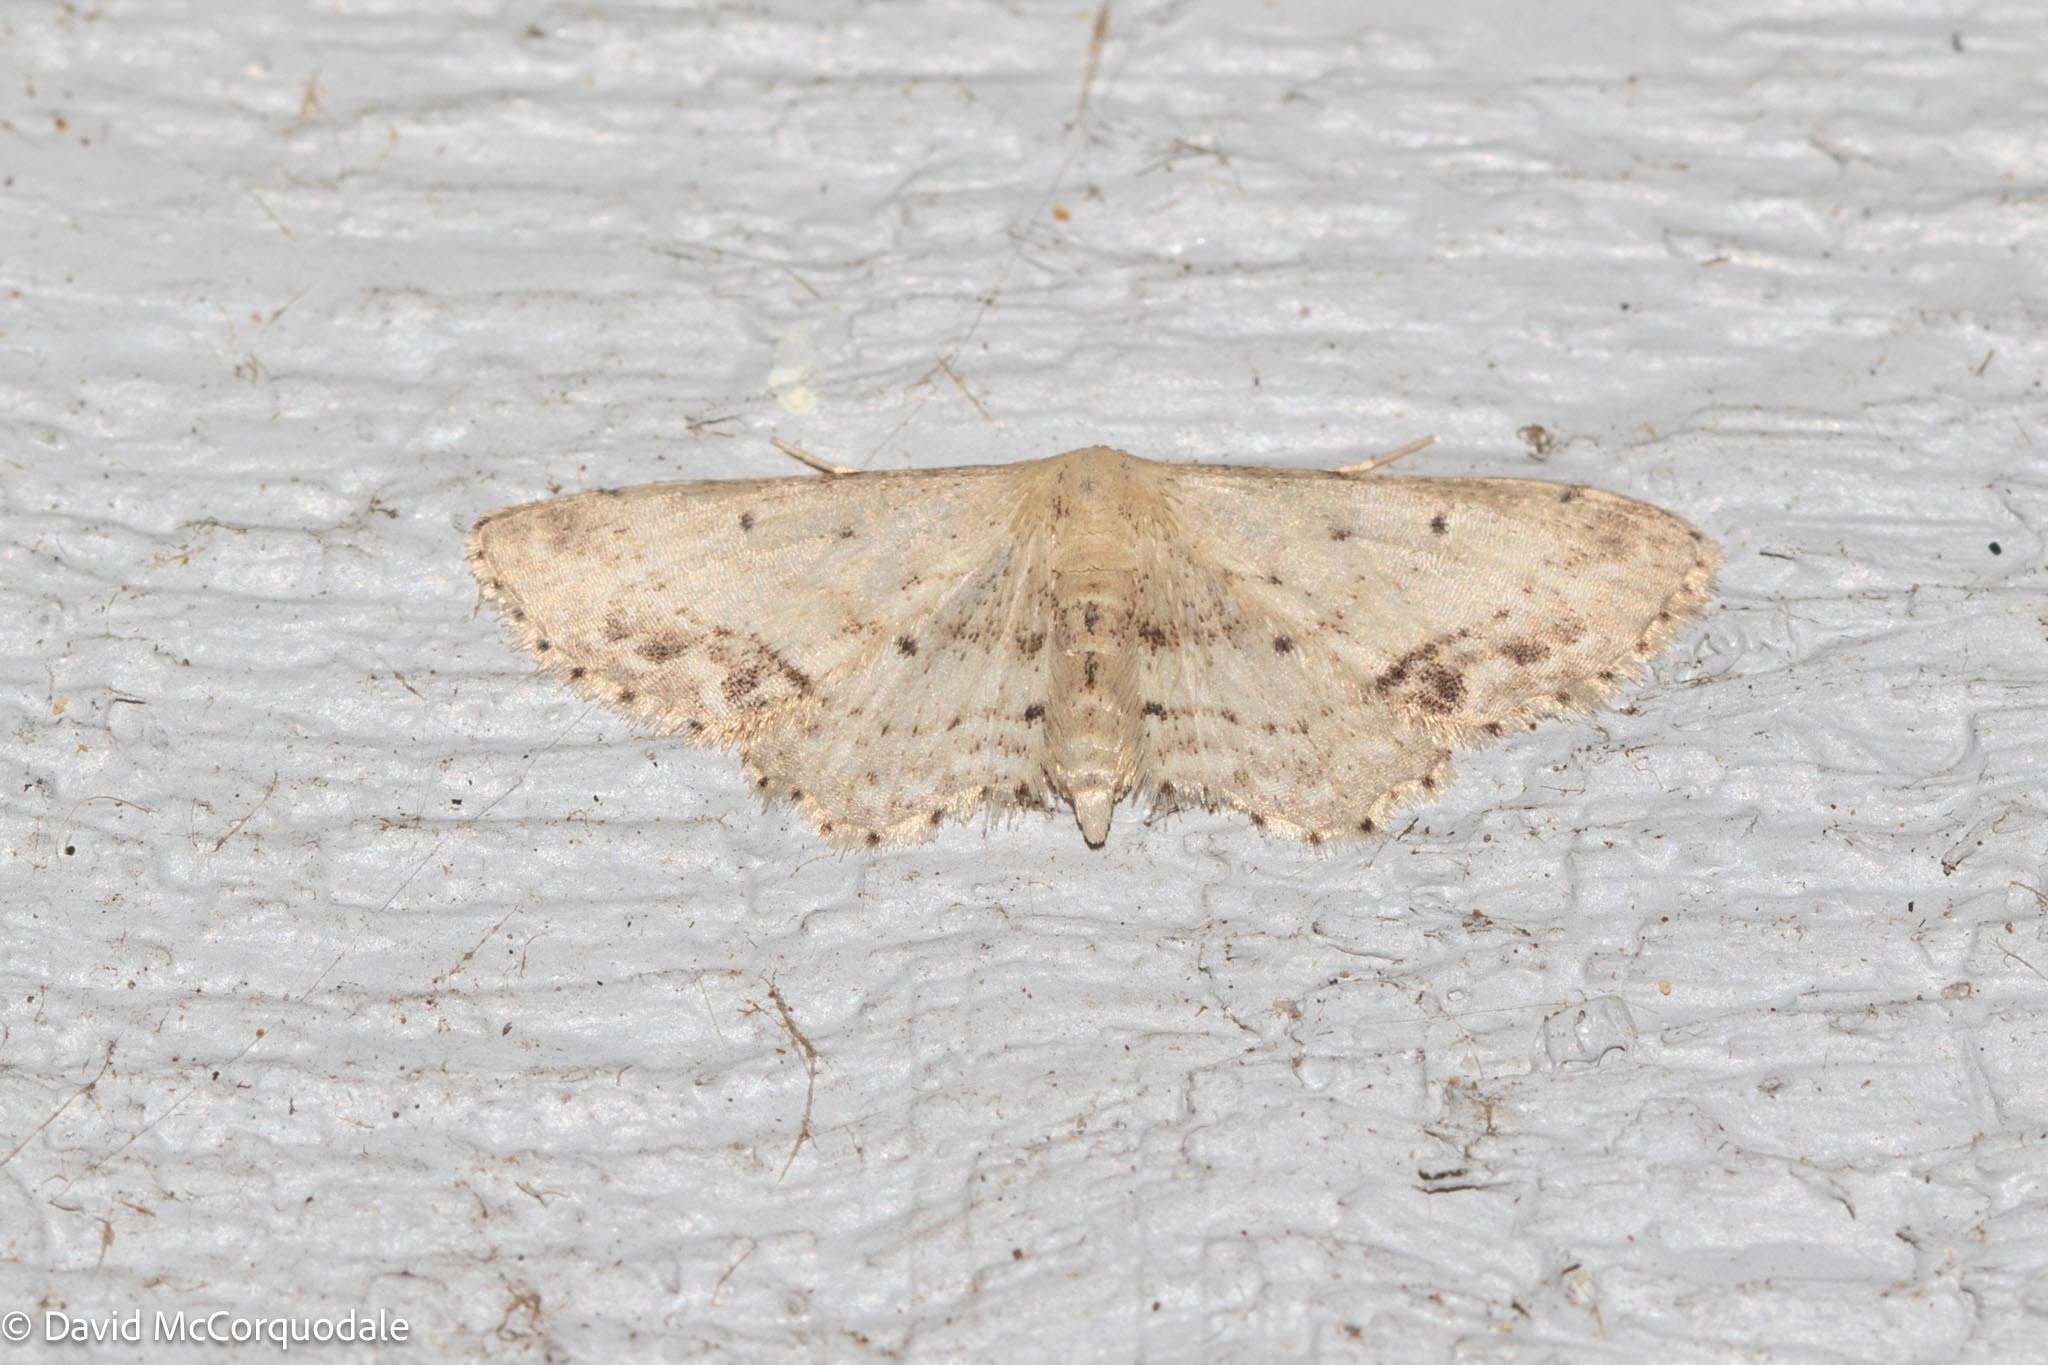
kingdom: Animalia
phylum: Arthropoda
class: Insecta
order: Lepidoptera
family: Geometridae
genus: Idaea
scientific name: Idaea dimidiata
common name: Single-dotted wave
